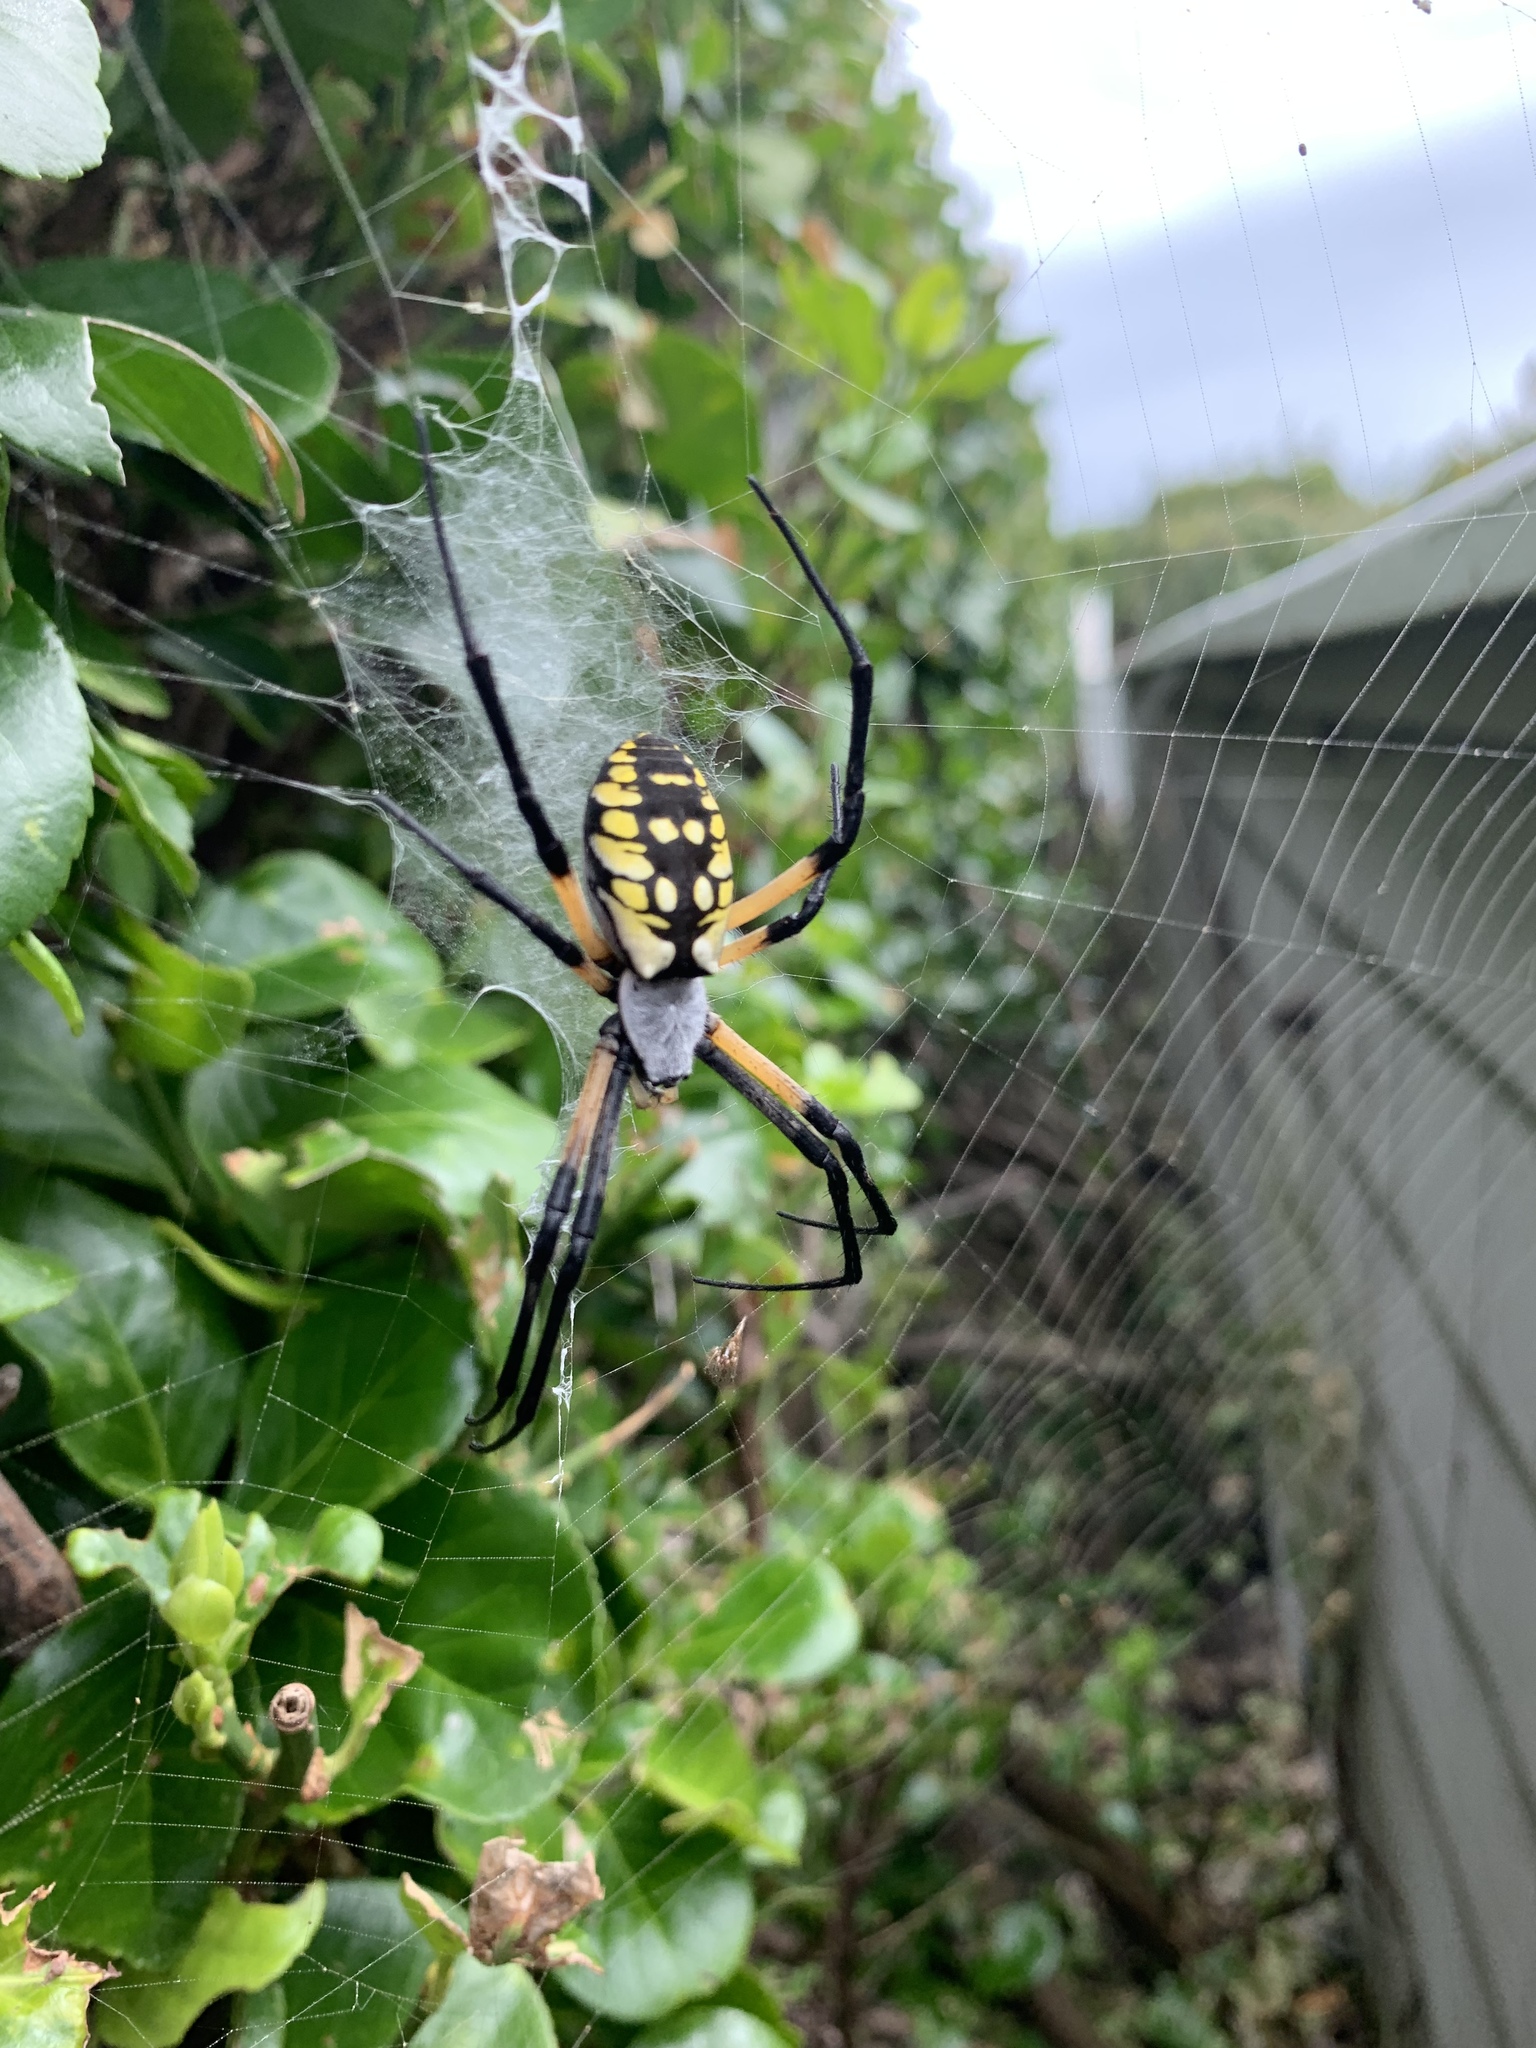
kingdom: Animalia
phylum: Arthropoda
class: Arachnida
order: Araneae
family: Araneidae
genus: Argiope
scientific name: Argiope aurantia
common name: Orb weavers
